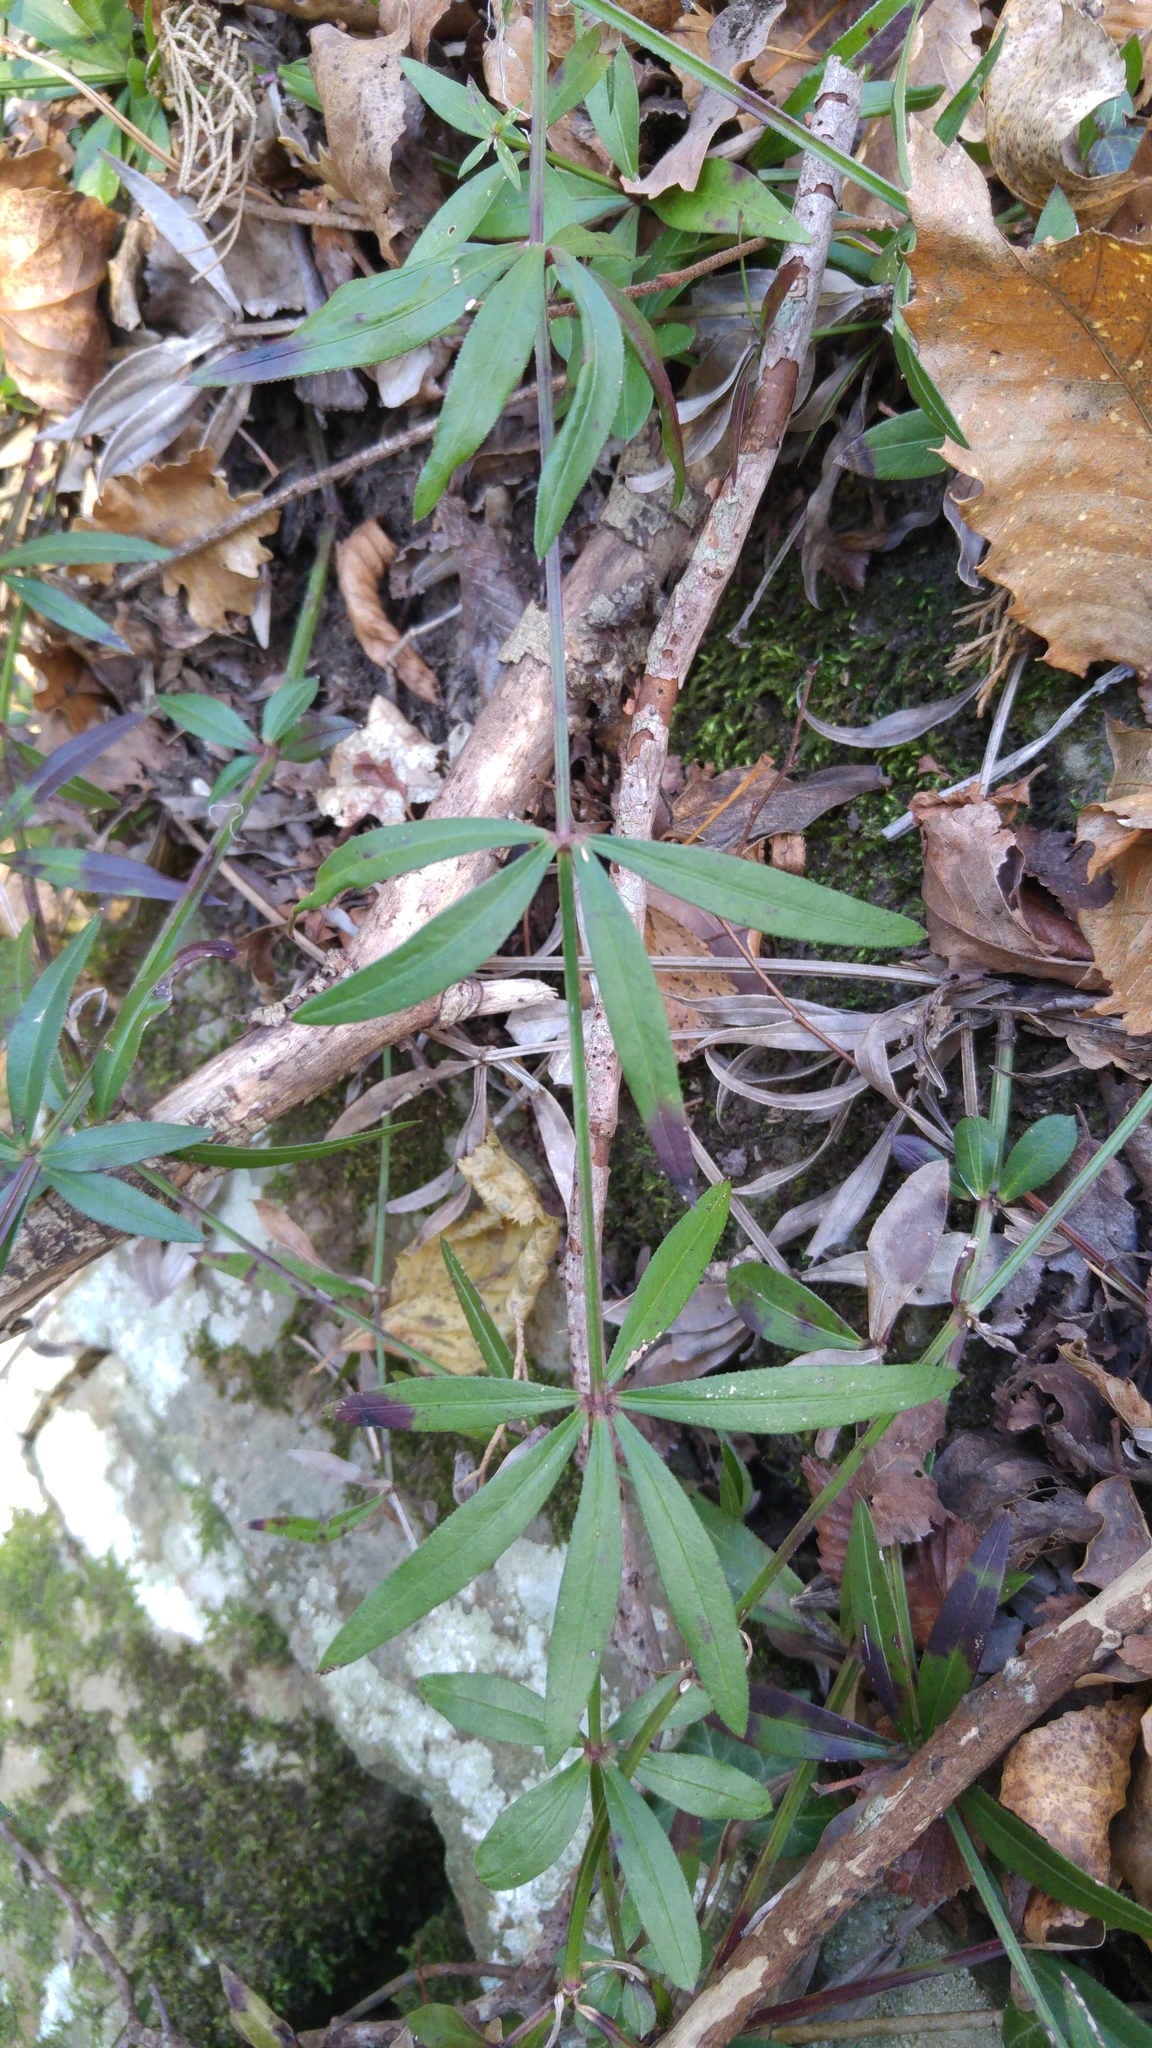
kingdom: Plantae
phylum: Tracheophyta
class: Magnoliopsida
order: Gentianales
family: Rubiaceae
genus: Rubia
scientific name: Rubia peregrina
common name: Wild madder
